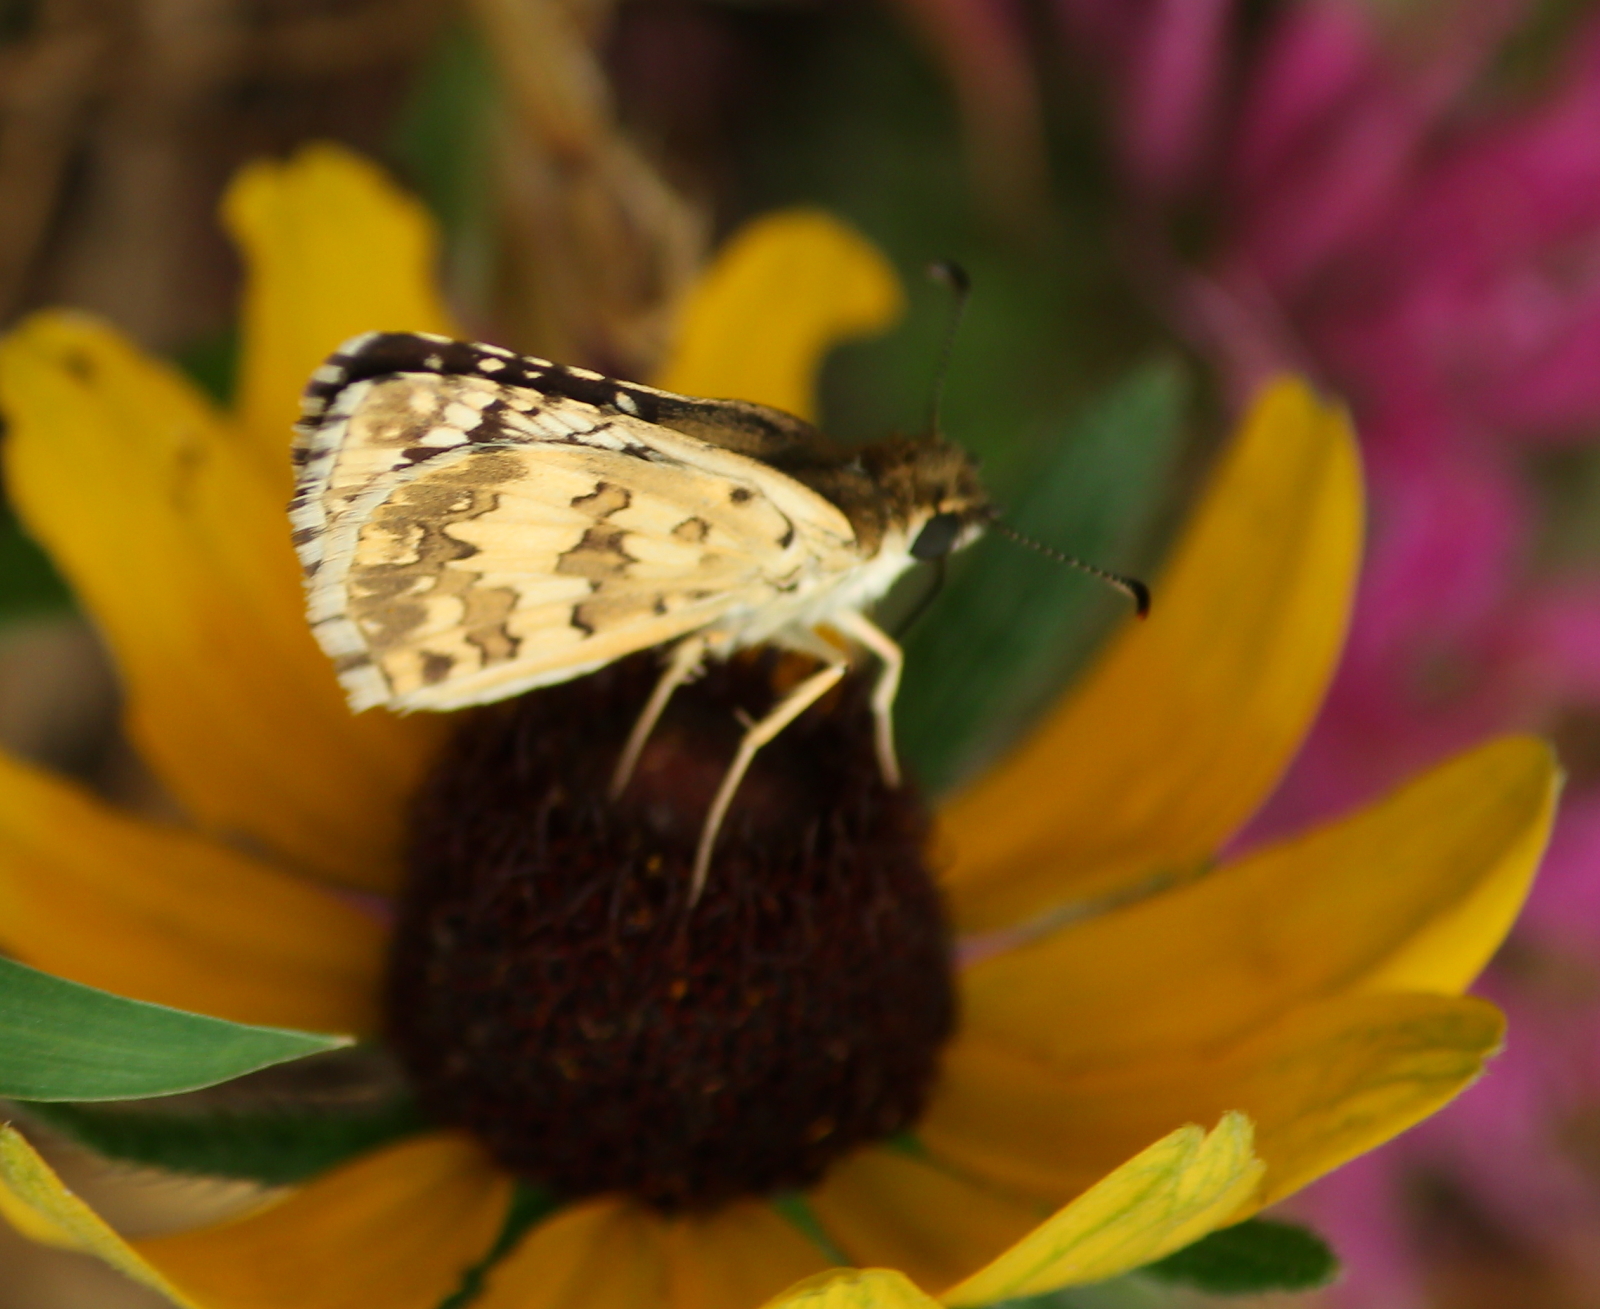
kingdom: Animalia
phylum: Arthropoda
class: Insecta
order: Lepidoptera
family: Hesperiidae
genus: Burnsius
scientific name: Burnsius communis
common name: Common checkered-skipper
